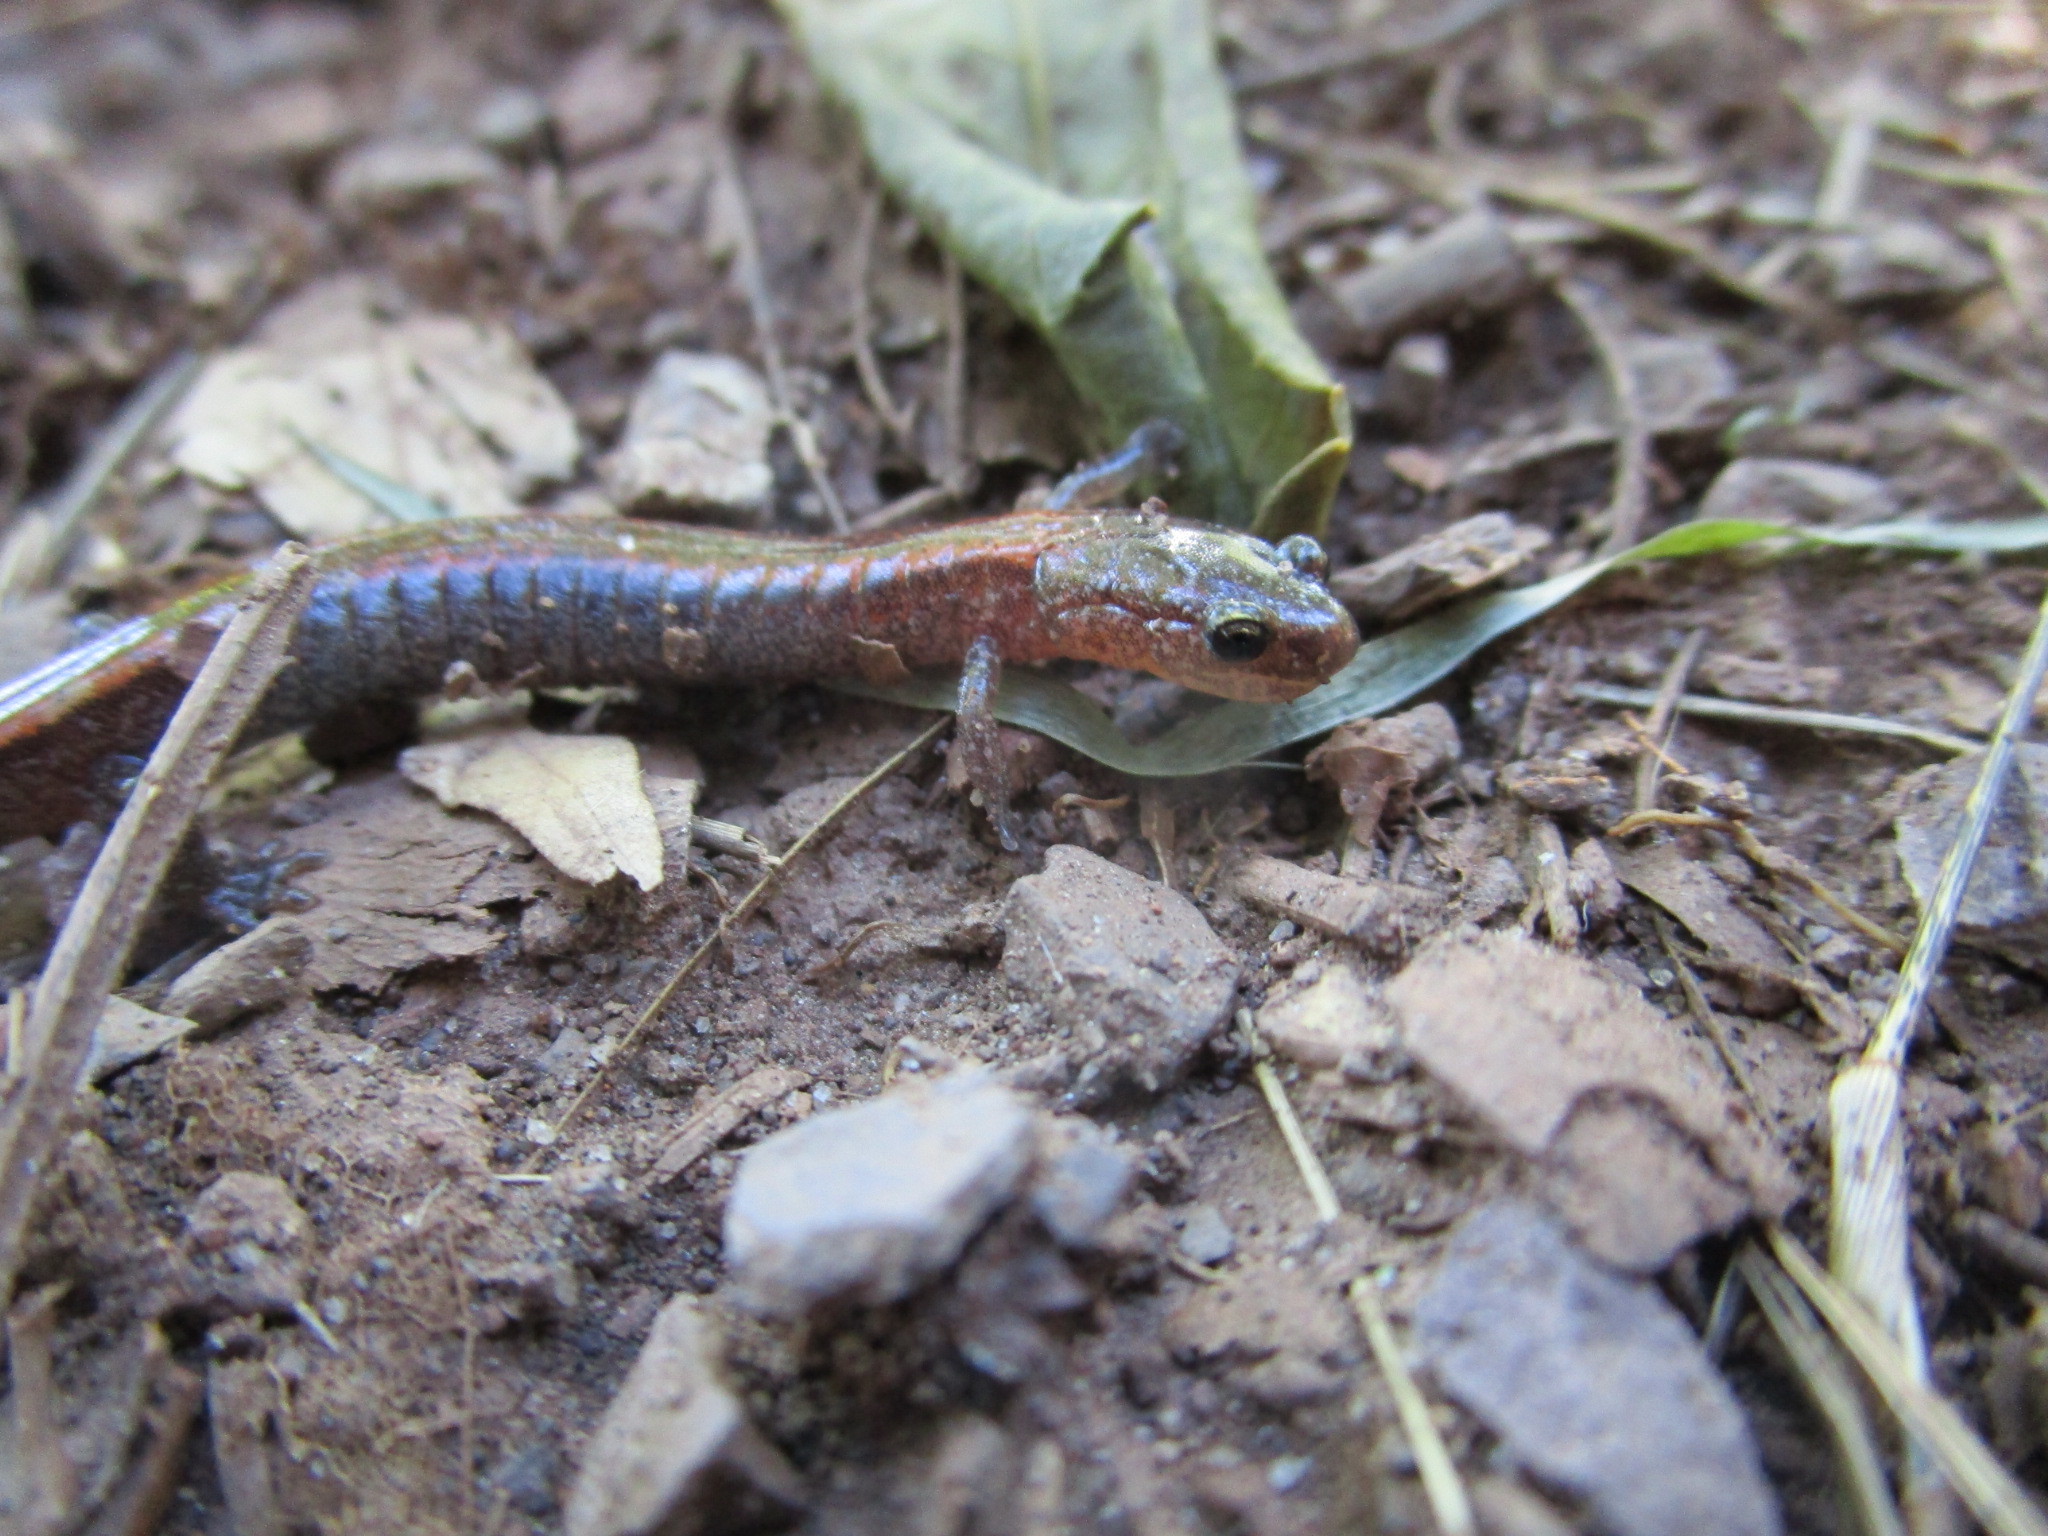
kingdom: Animalia
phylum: Chordata
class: Amphibia
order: Caudata
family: Plethodontidae
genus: Plethodon
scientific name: Plethodon cinereus
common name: Redback salamander
